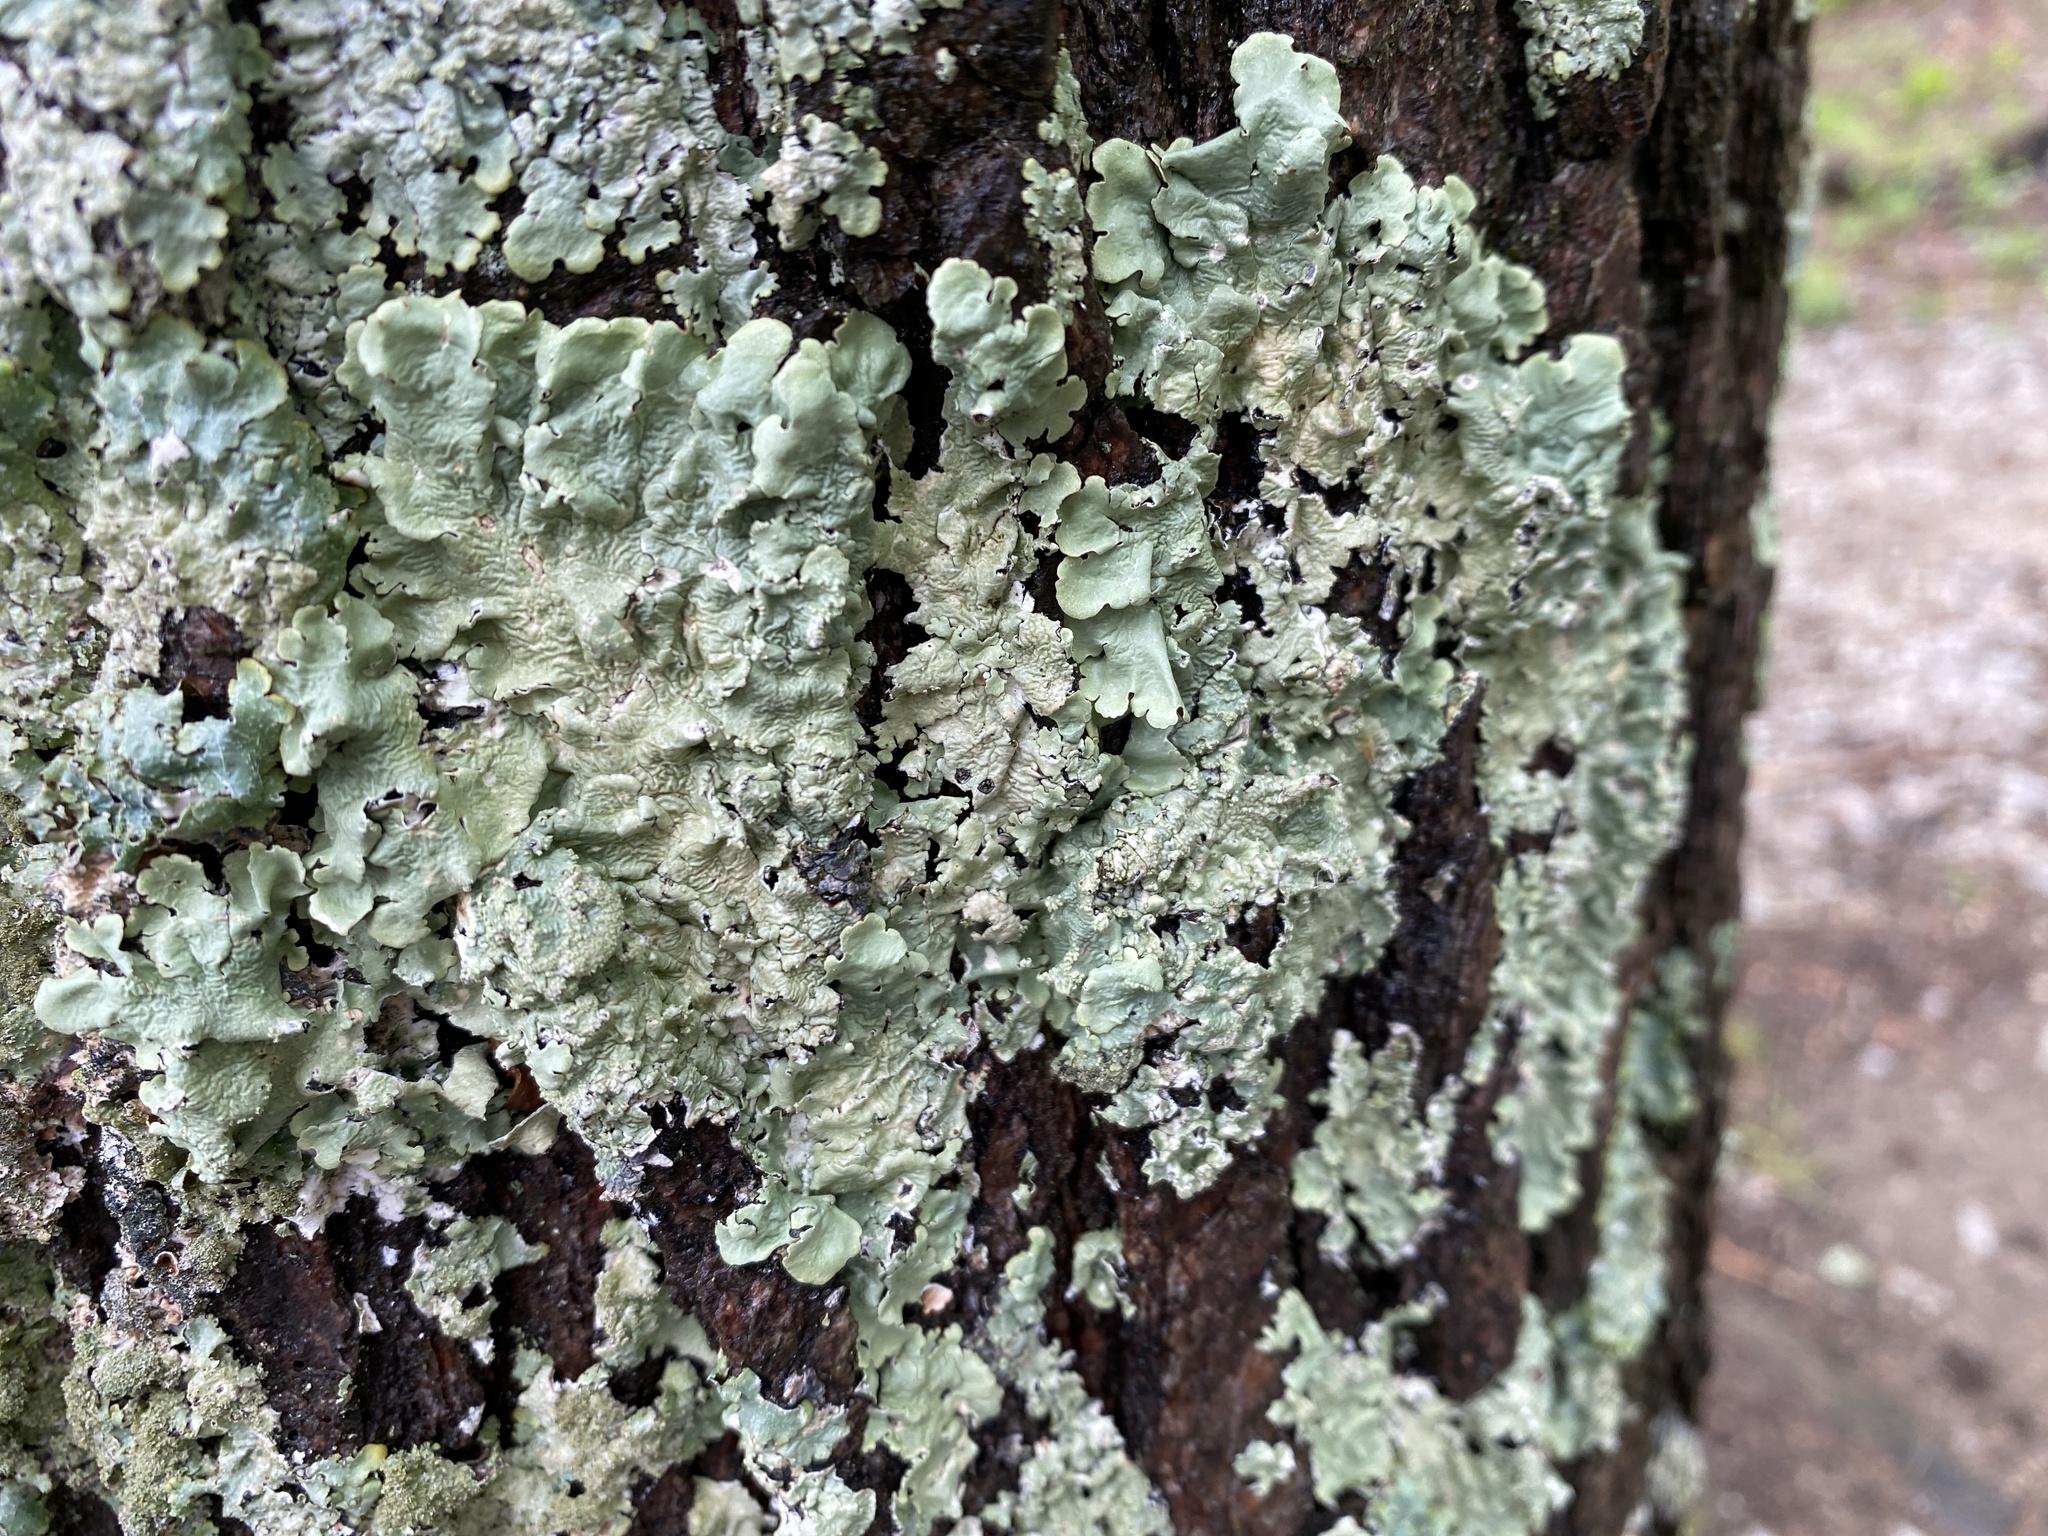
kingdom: Fungi
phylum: Ascomycota
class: Lecanoromycetes
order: Lecanorales
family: Parmeliaceae
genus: Flavoparmelia
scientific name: Flavoparmelia caperata
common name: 40-mile per hour lichen
